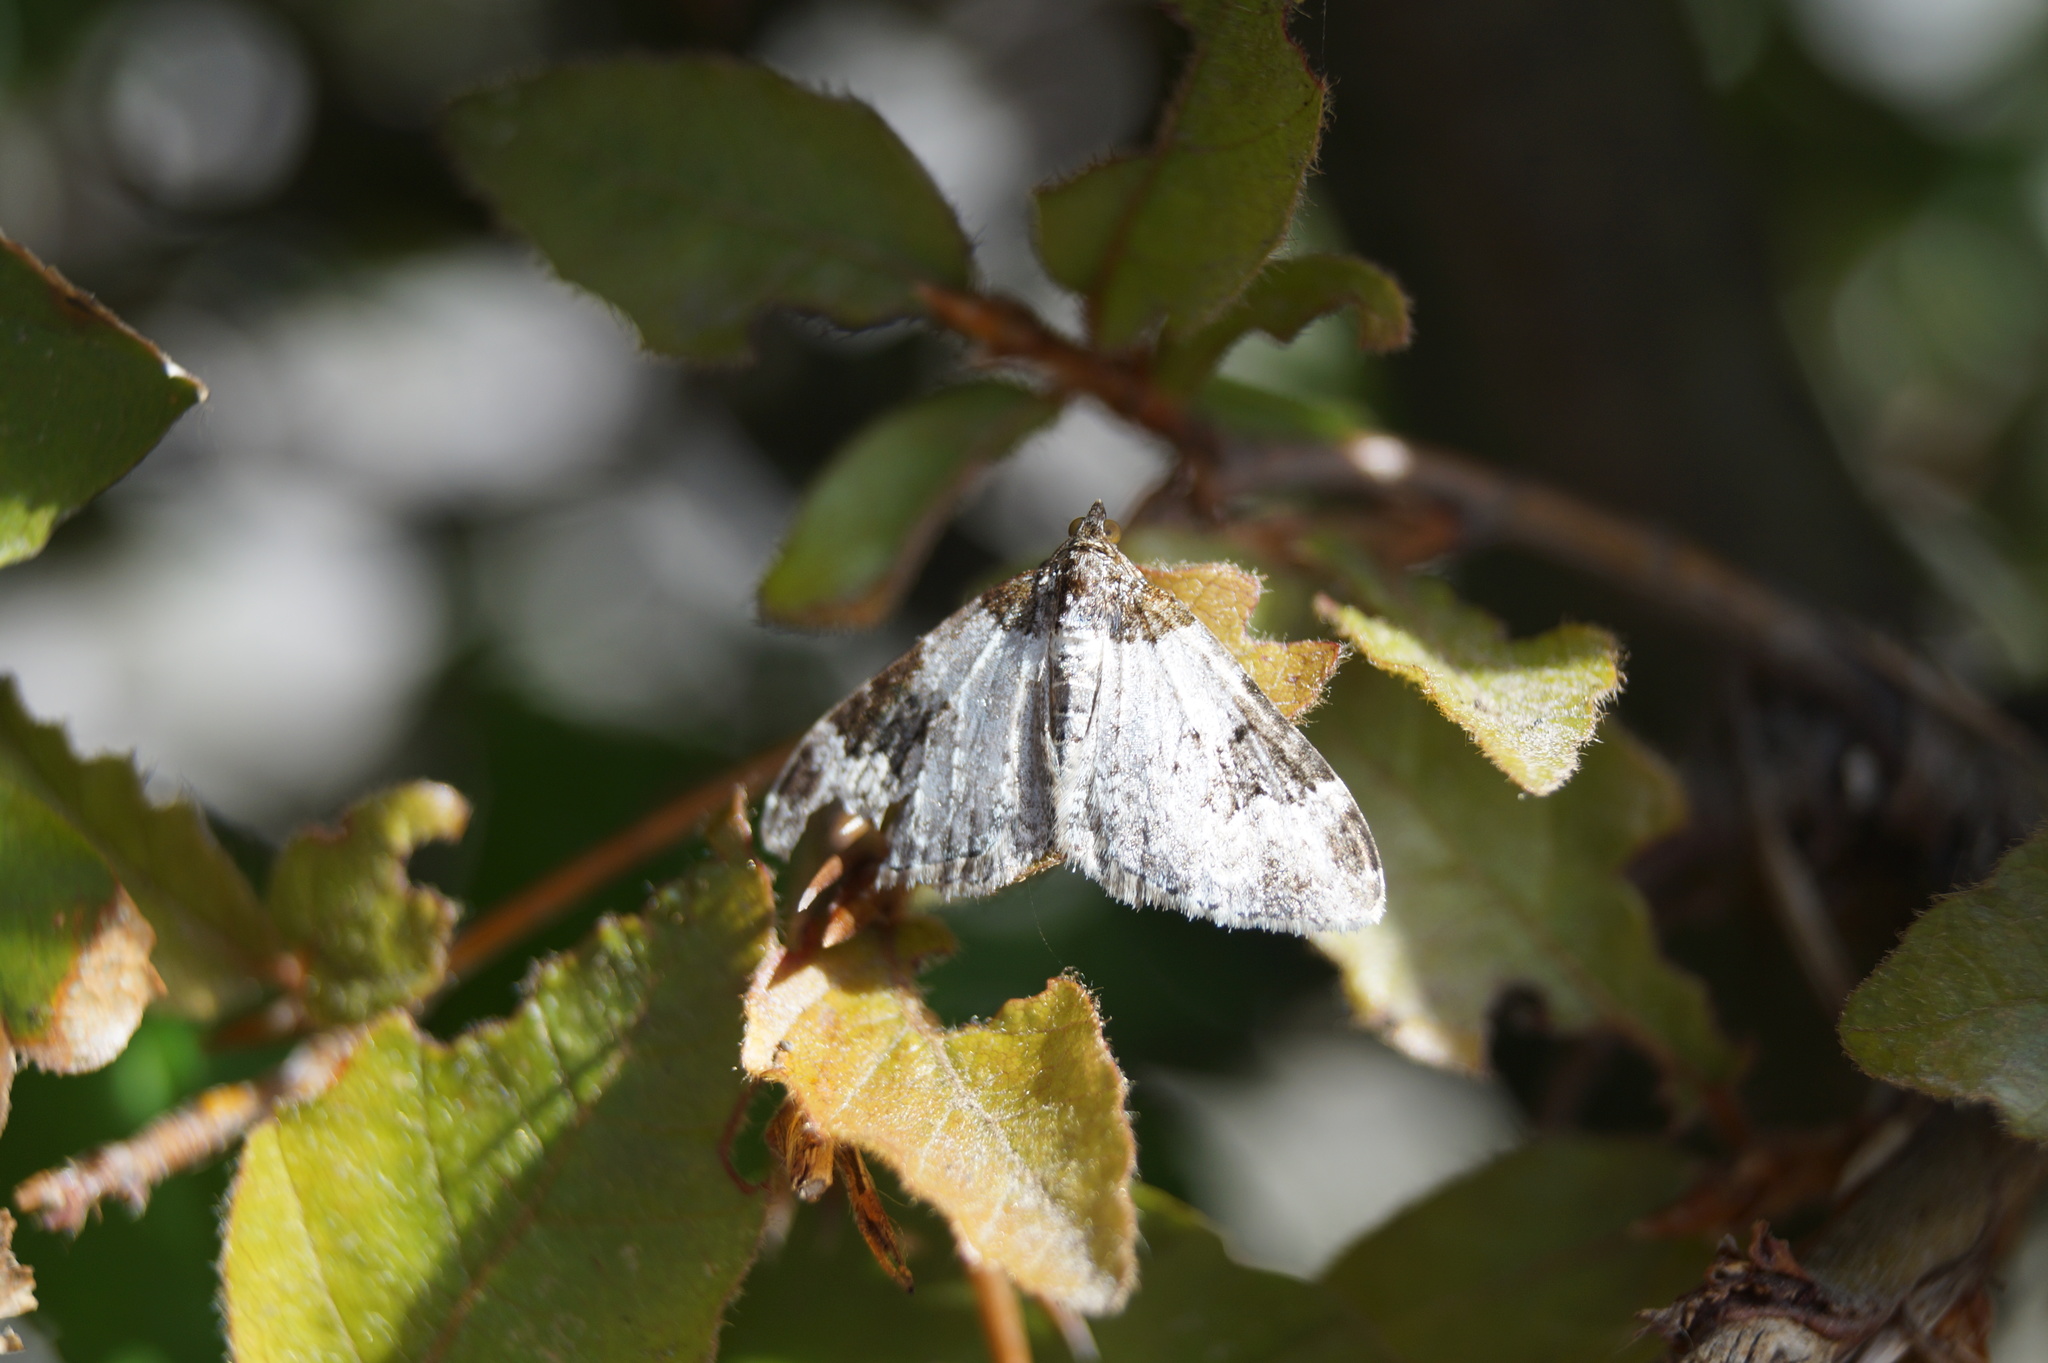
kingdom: Animalia
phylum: Arthropoda
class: Insecta
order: Lepidoptera
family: Geometridae
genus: Xanthorhoe
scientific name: Xanthorhoe fluctuata
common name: Garden carpet
